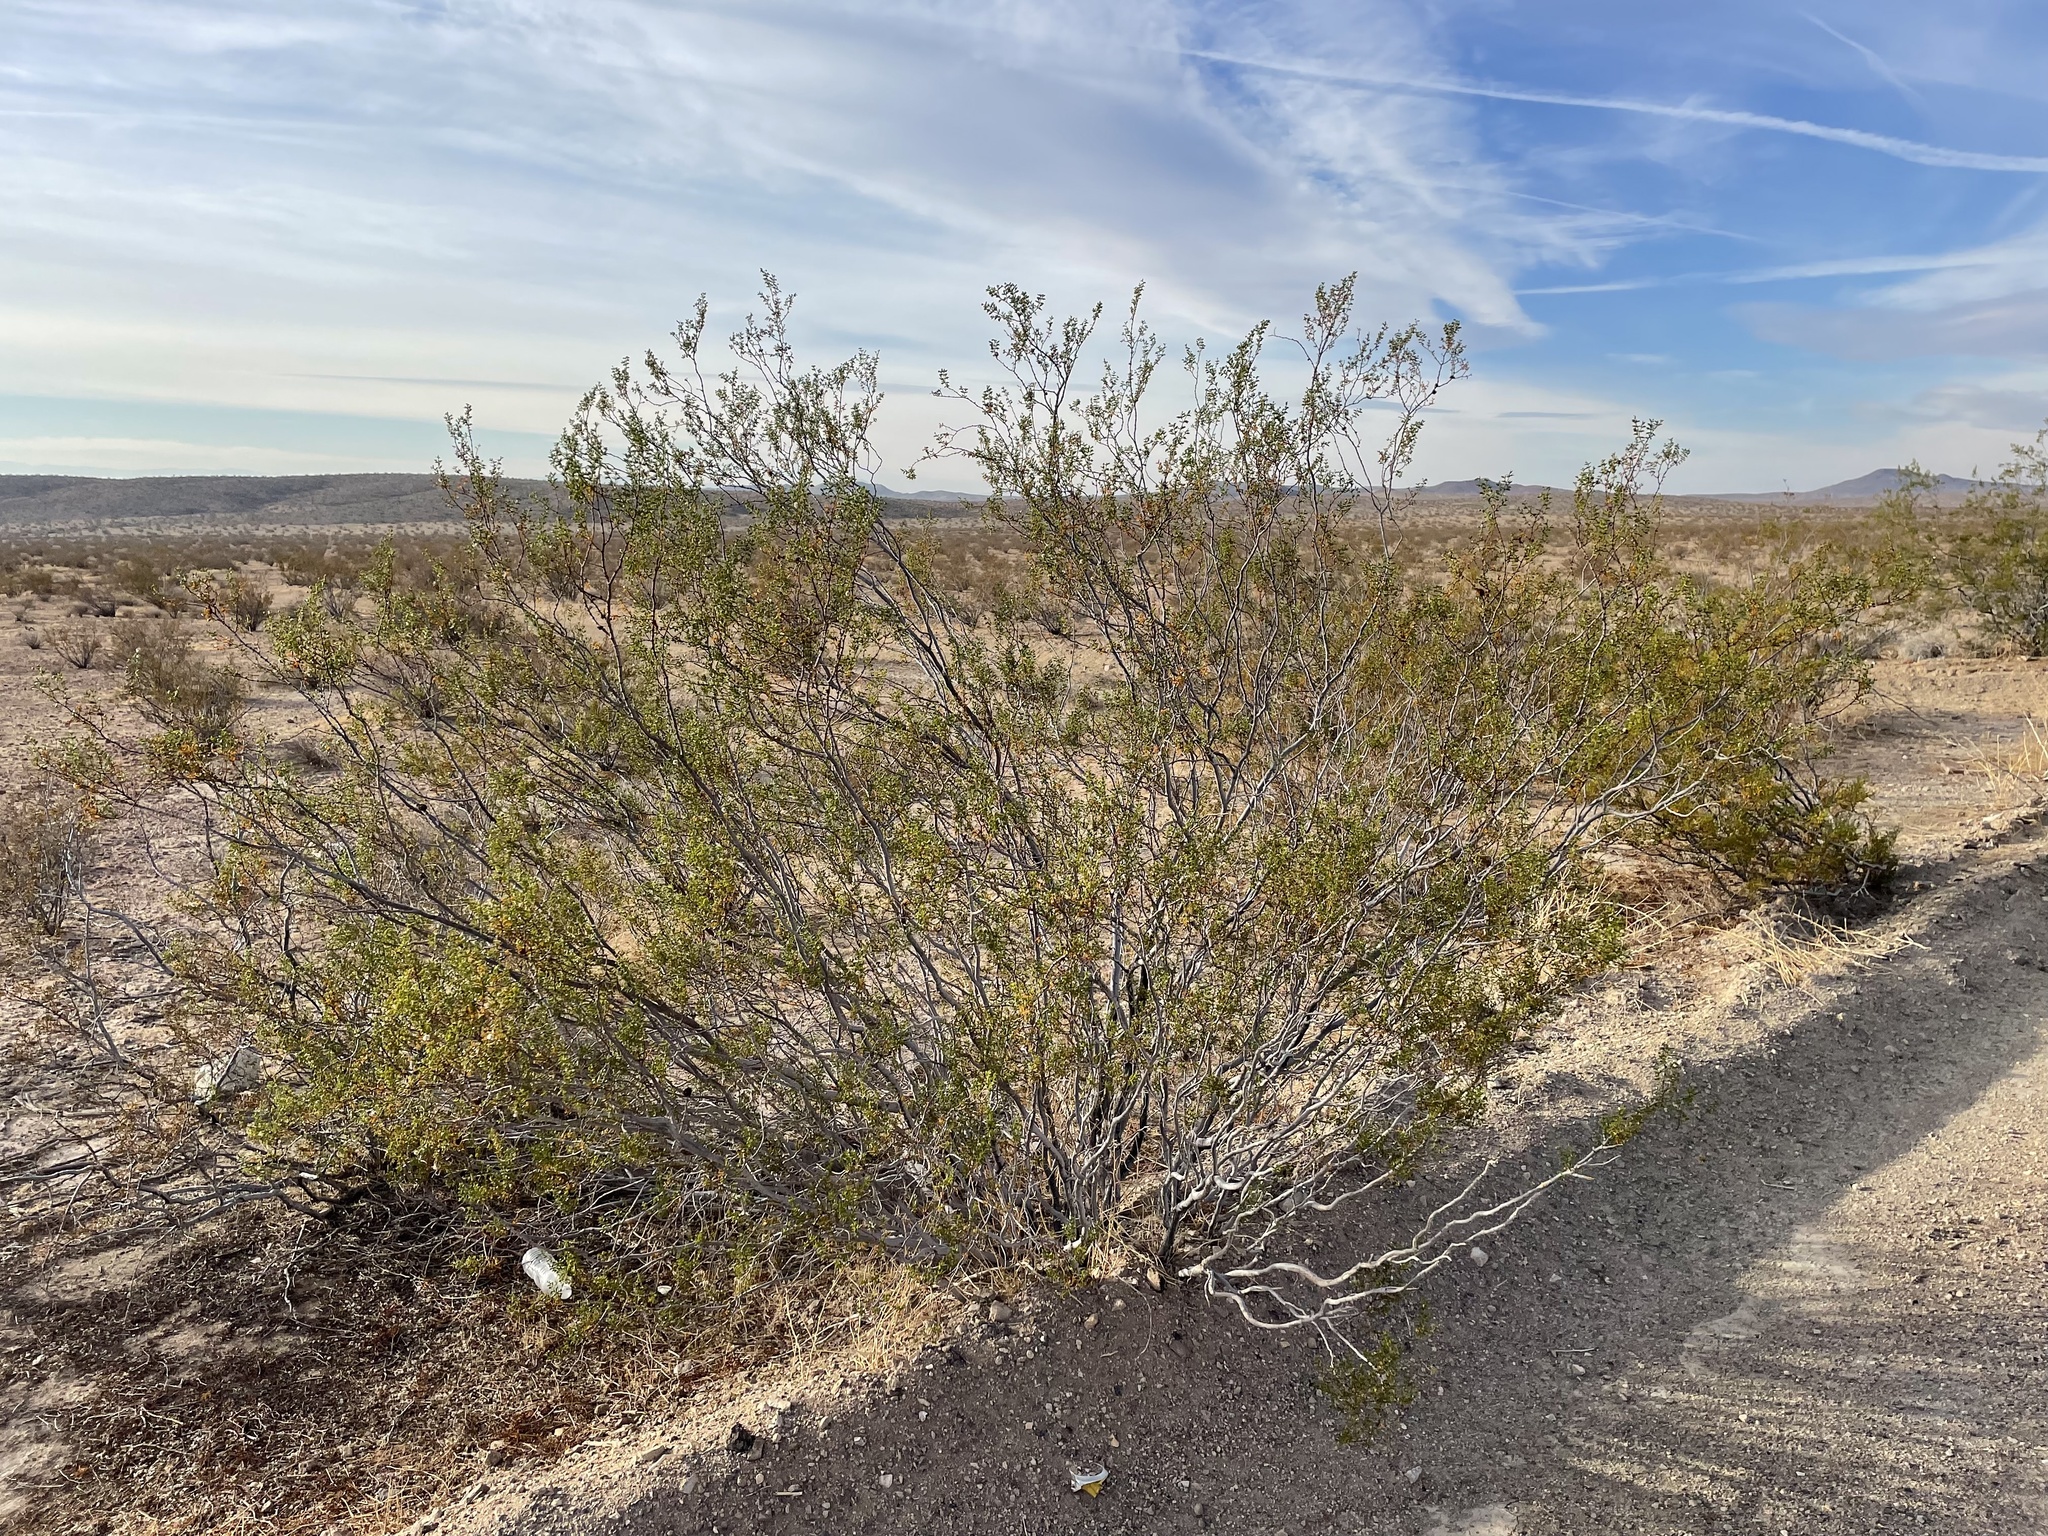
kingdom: Animalia
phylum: Arthropoda
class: Insecta
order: Diptera
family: Cecidomyiidae
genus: Asphondylia
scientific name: Asphondylia resinosa
